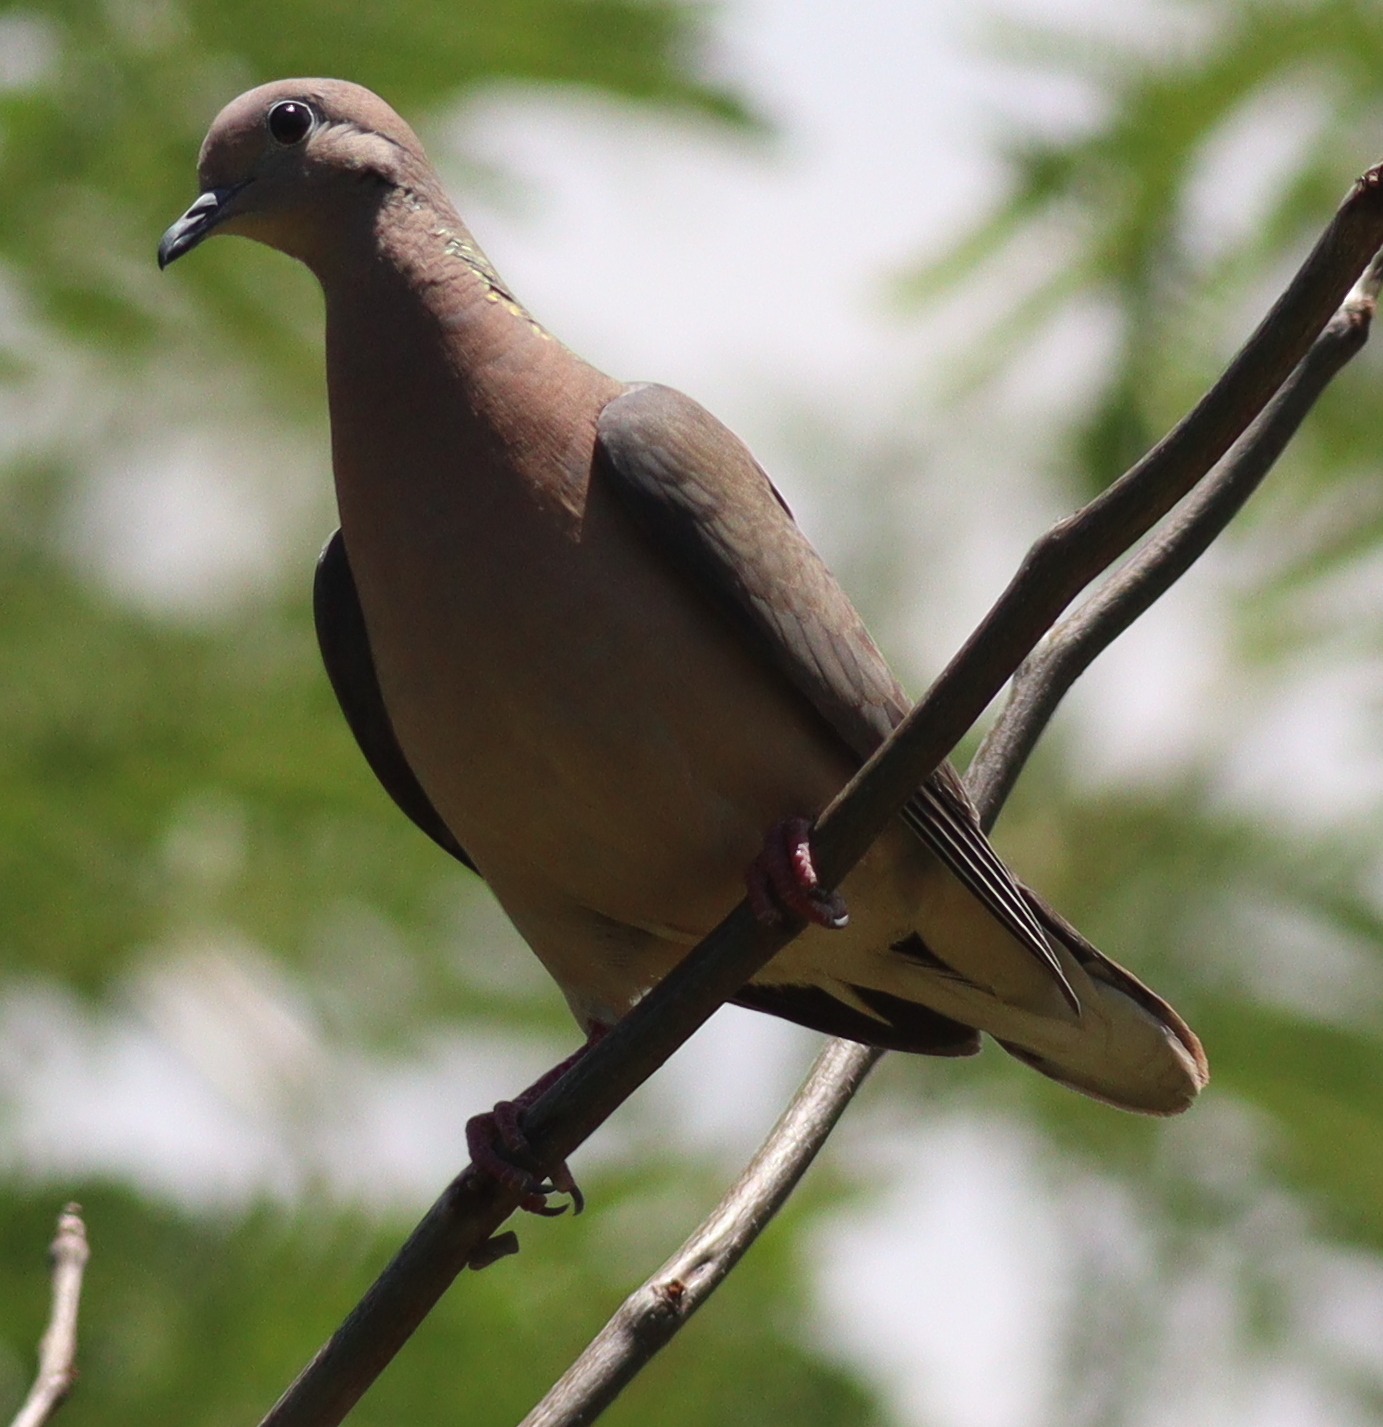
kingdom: Animalia
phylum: Chordata
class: Aves
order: Columbiformes
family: Columbidae
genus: Zenaida
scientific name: Zenaida auriculata
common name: Eared dove
